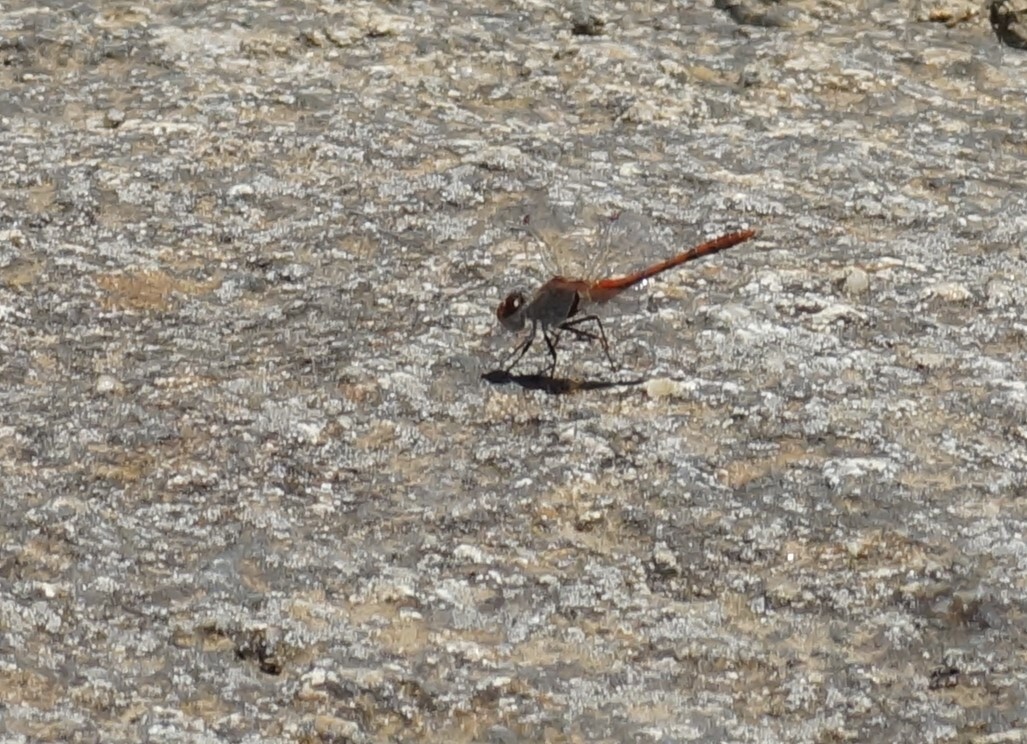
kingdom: Animalia
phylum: Arthropoda
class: Insecta
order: Odonata
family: Libellulidae
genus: Diplacodes
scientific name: Diplacodes bipunctata
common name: Red percher dragonfly
